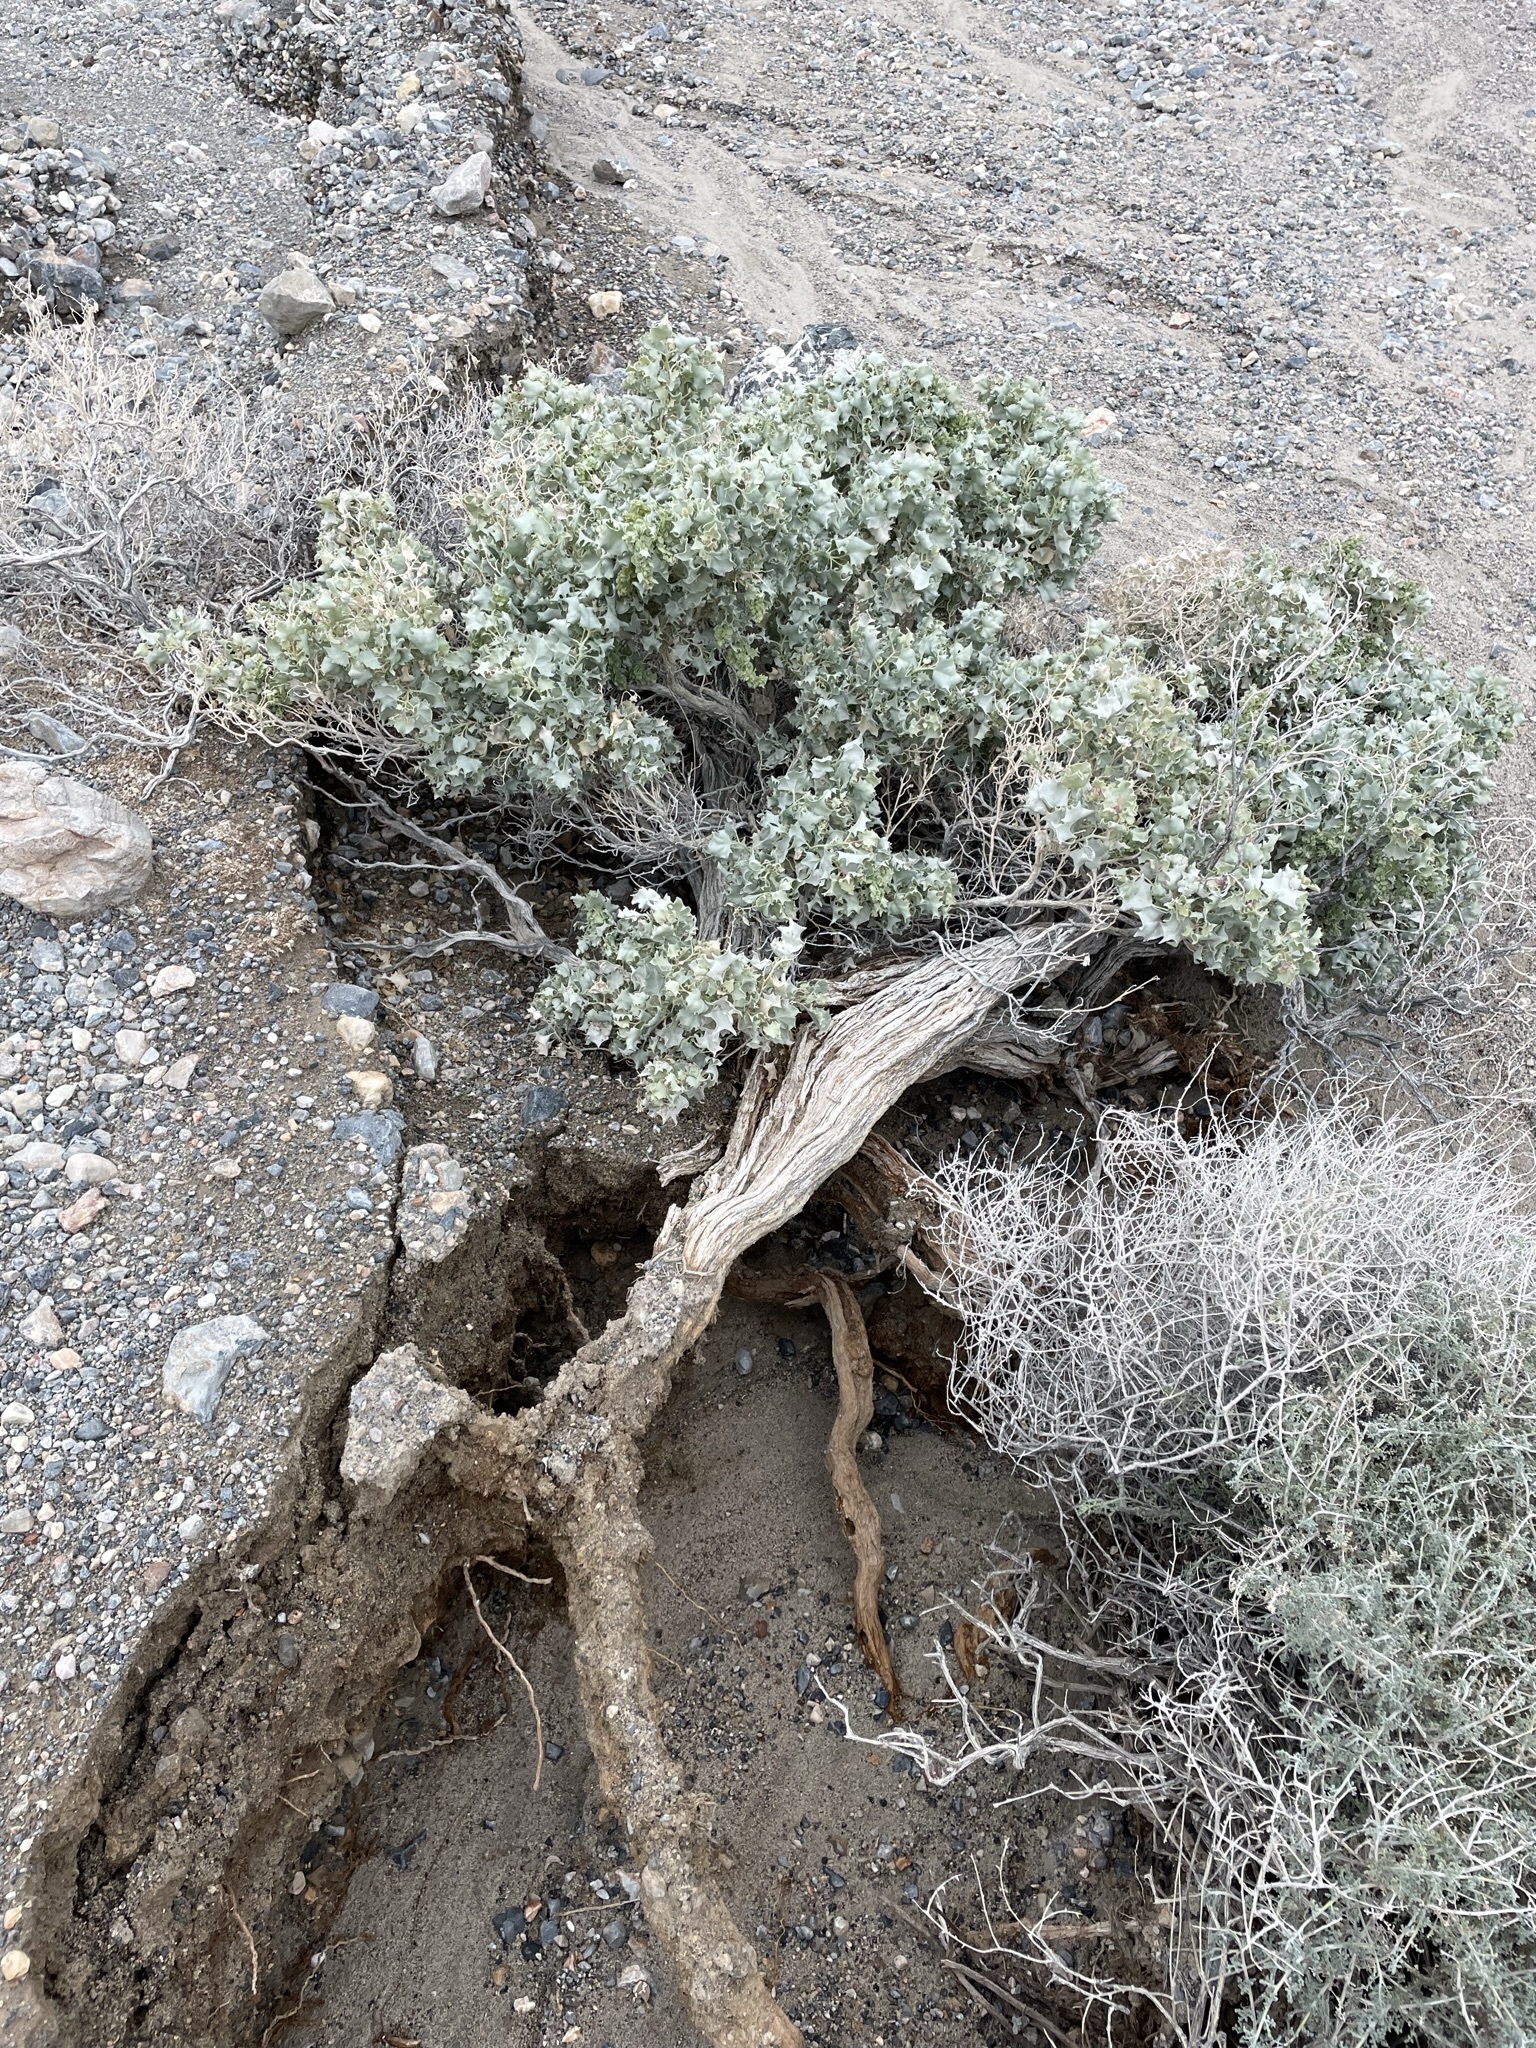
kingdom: Plantae
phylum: Tracheophyta
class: Magnoliopsida
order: Caryophyllales
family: Amaranthaceae
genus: Atriplex
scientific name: Atriplex hymenelytra
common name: Desert-holly
